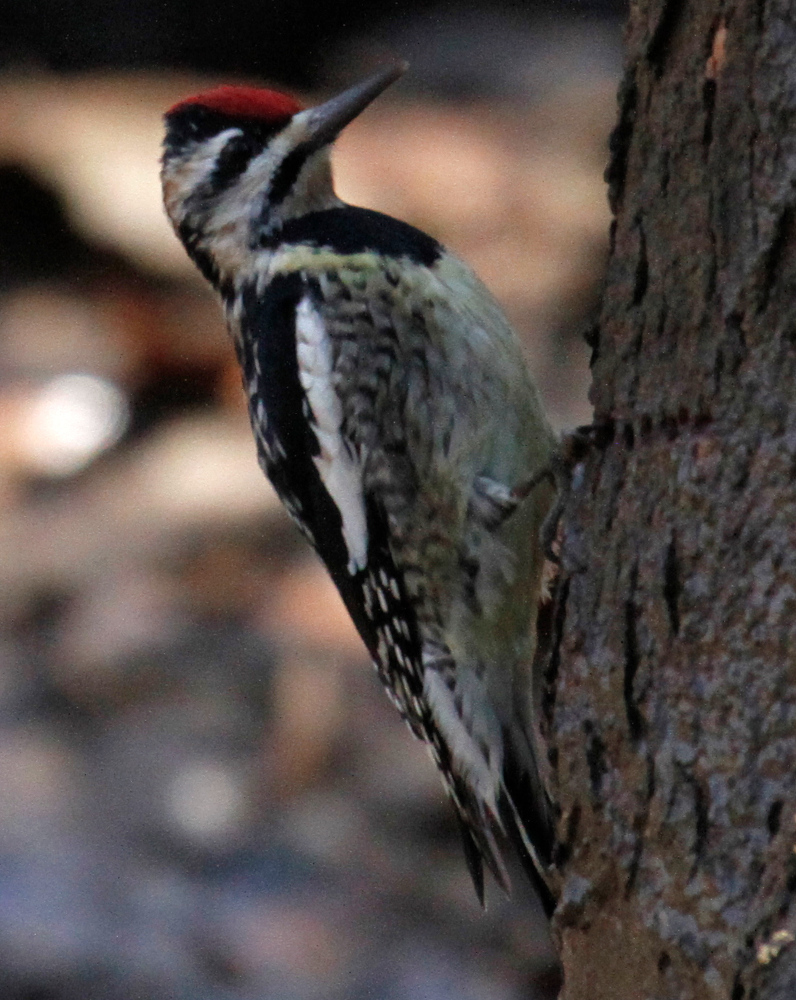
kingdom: Animalia
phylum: Chordata
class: Aves
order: Piciformes
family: Picidae
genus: Sphyrapicus
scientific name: Sphyrapicus varius
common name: Yellow-bellied sapsucker
